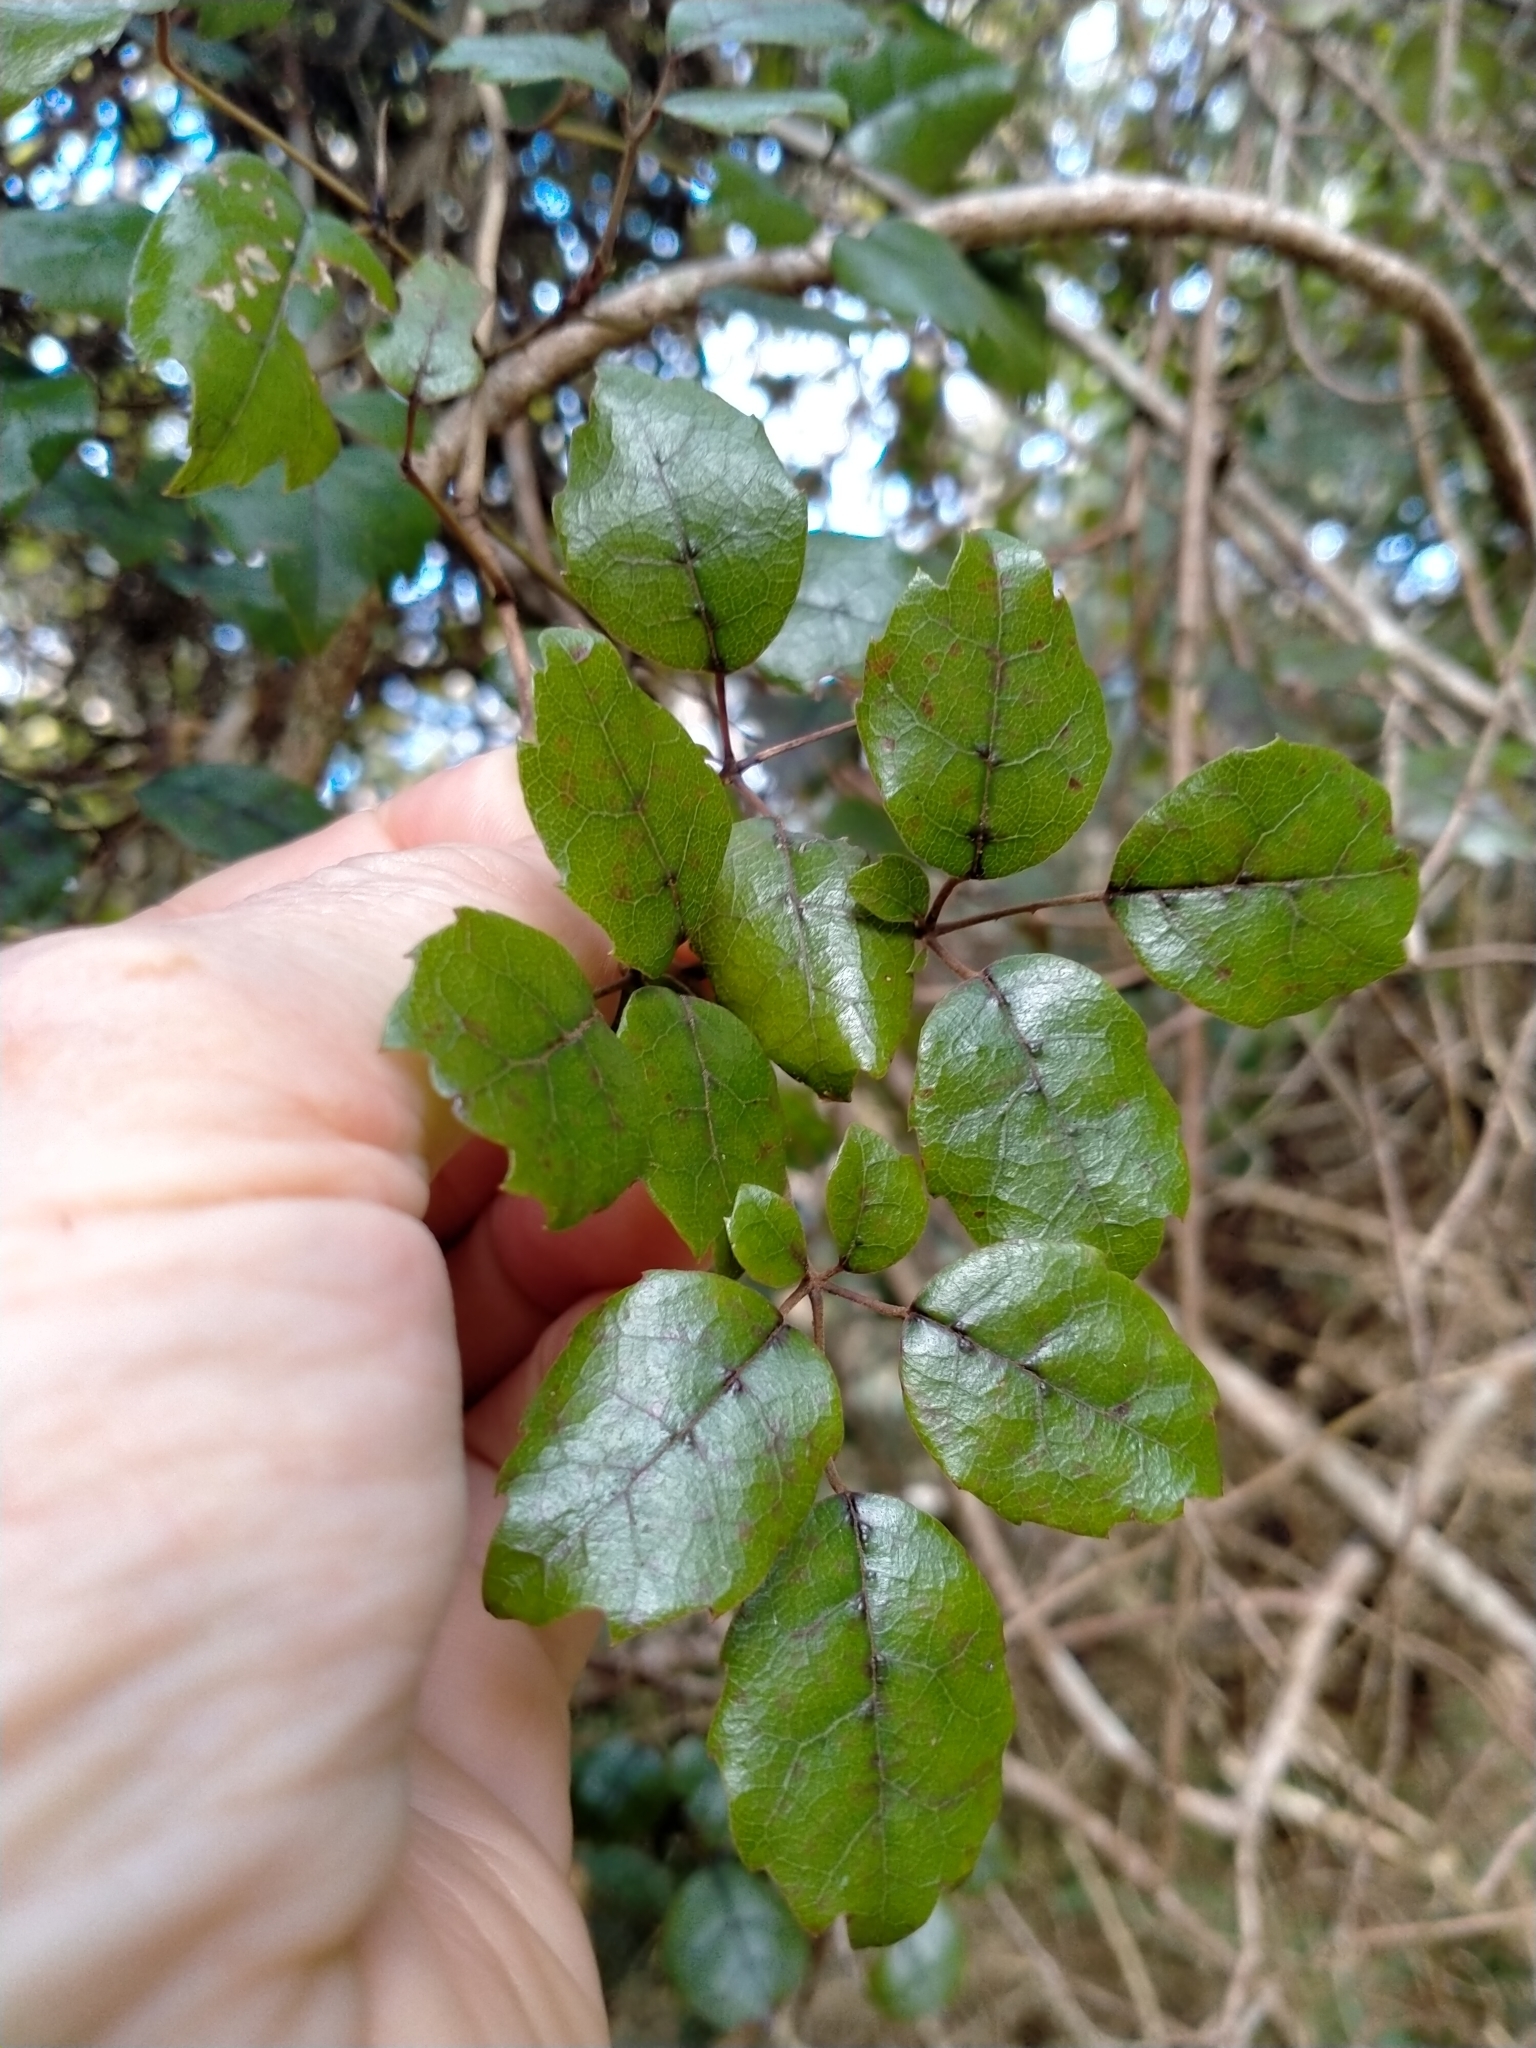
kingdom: Plantae
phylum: Tracheophyta
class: Magnoliopsida
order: Rosales
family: Rosaceae
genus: Rubus
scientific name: Rubus australis
